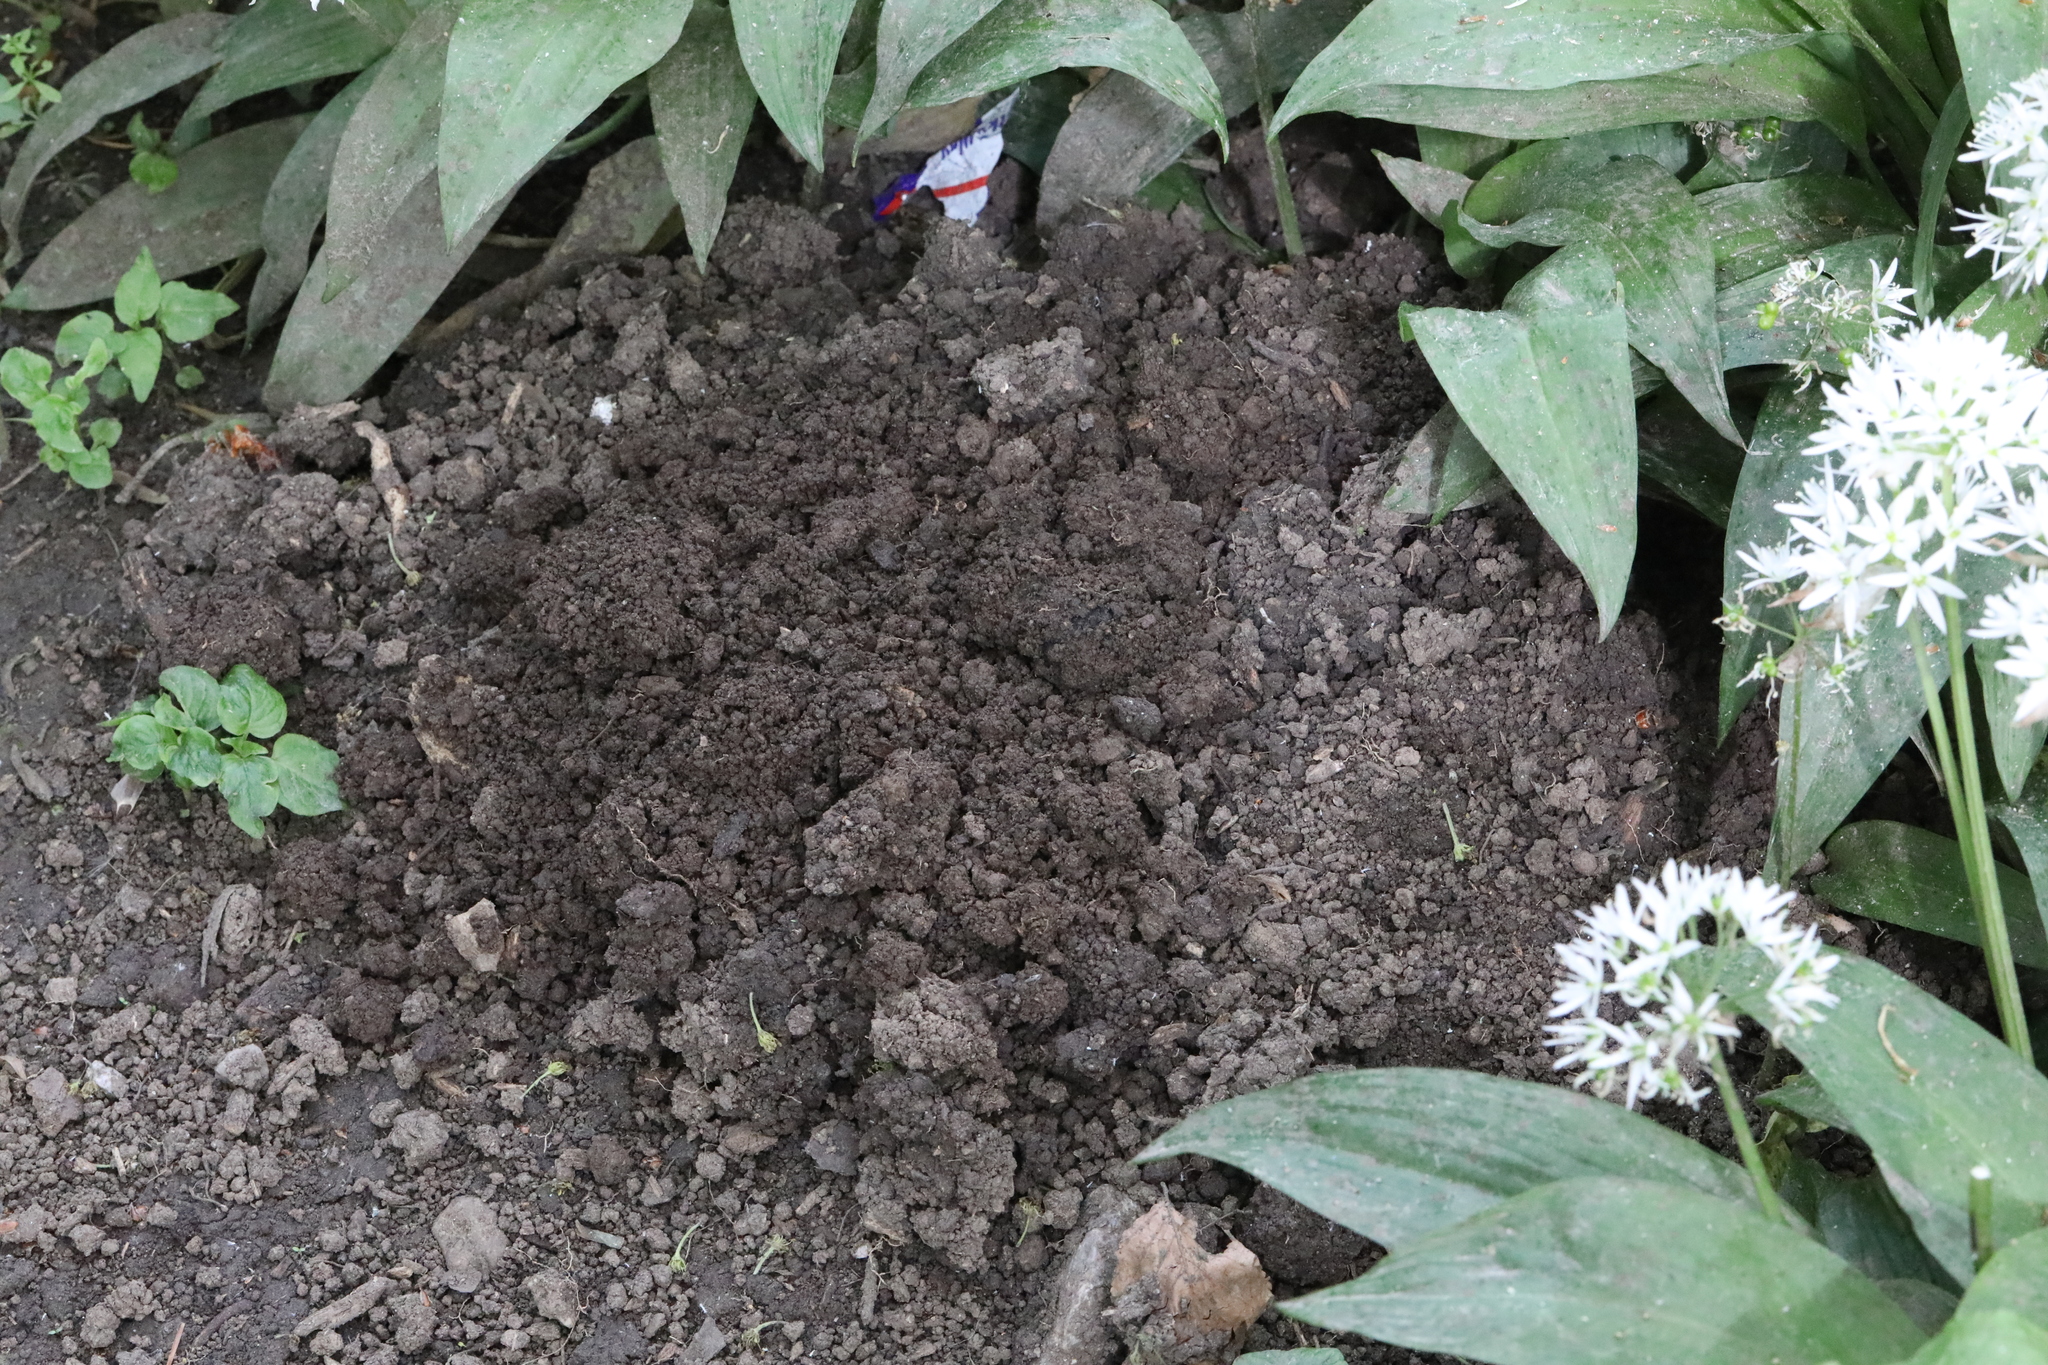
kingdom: Animalia
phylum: Chordata
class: Mammalia
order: Soricomorpha
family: Talpidae
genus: Talpa
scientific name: Talpa europaea
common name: European mole
